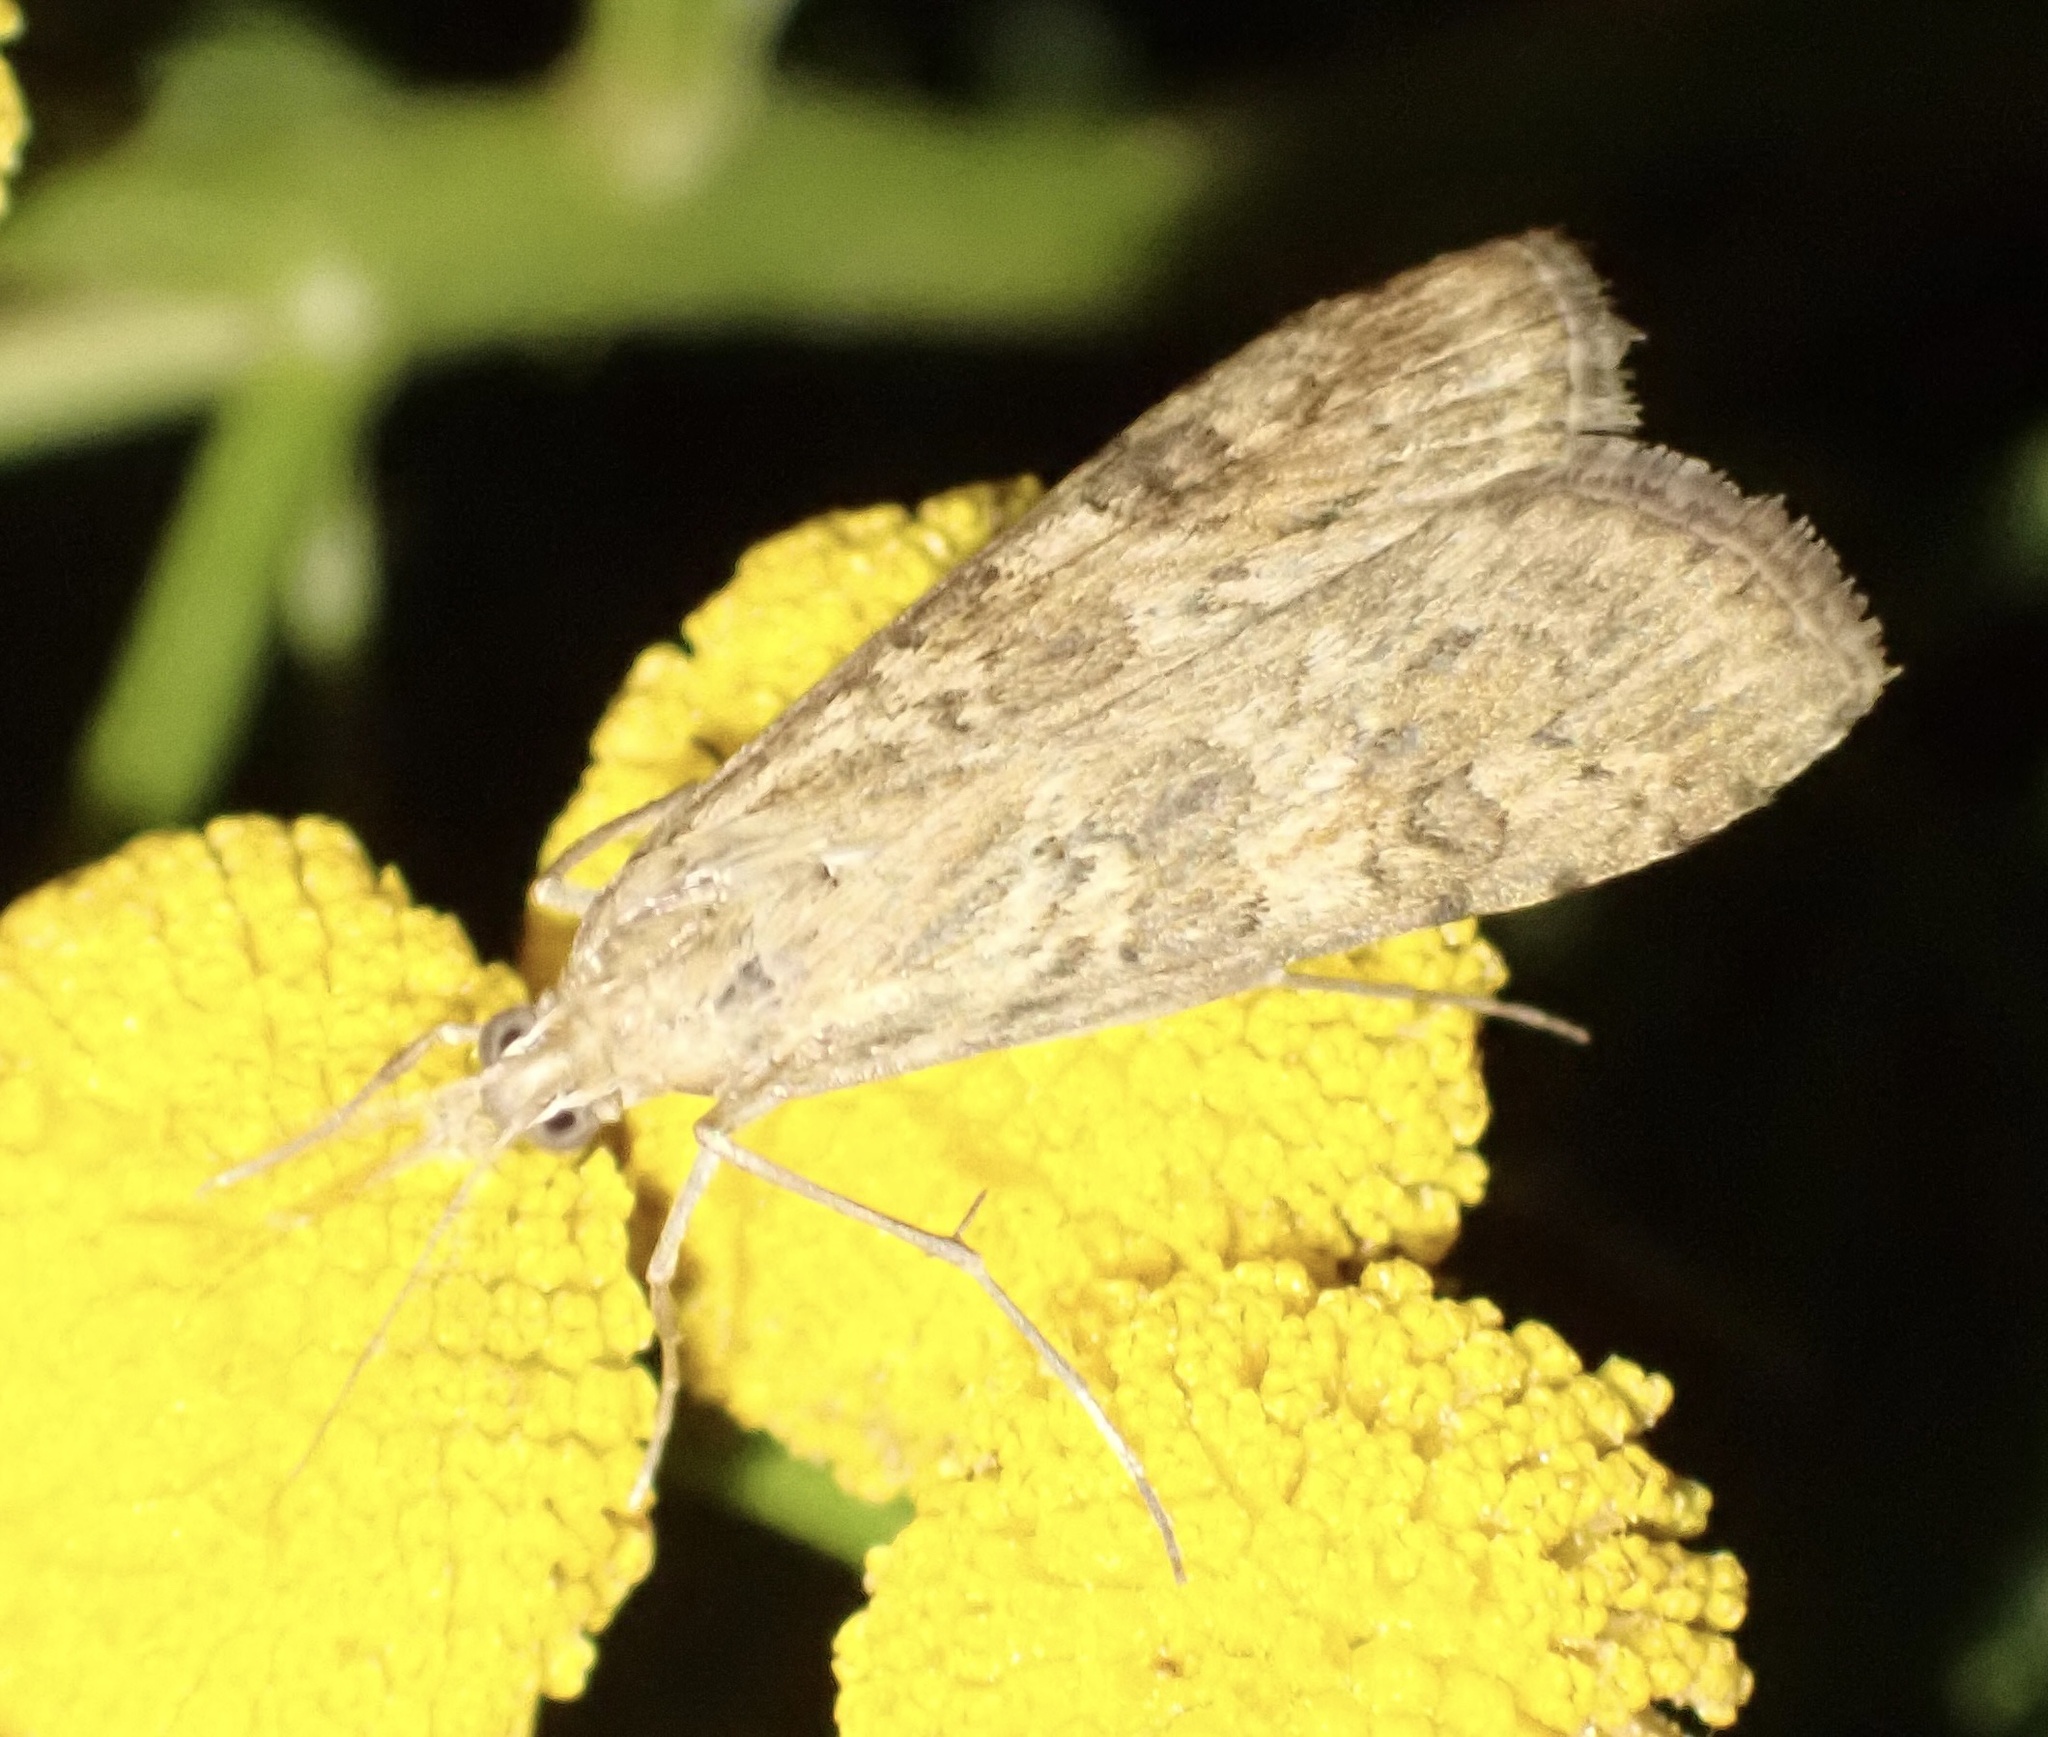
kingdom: Animalia
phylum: Arthropoda
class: Insecta
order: Lepidoptera
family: Crambidae
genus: Nomophila
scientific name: Nomophila noctuella
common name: Rush veneer
